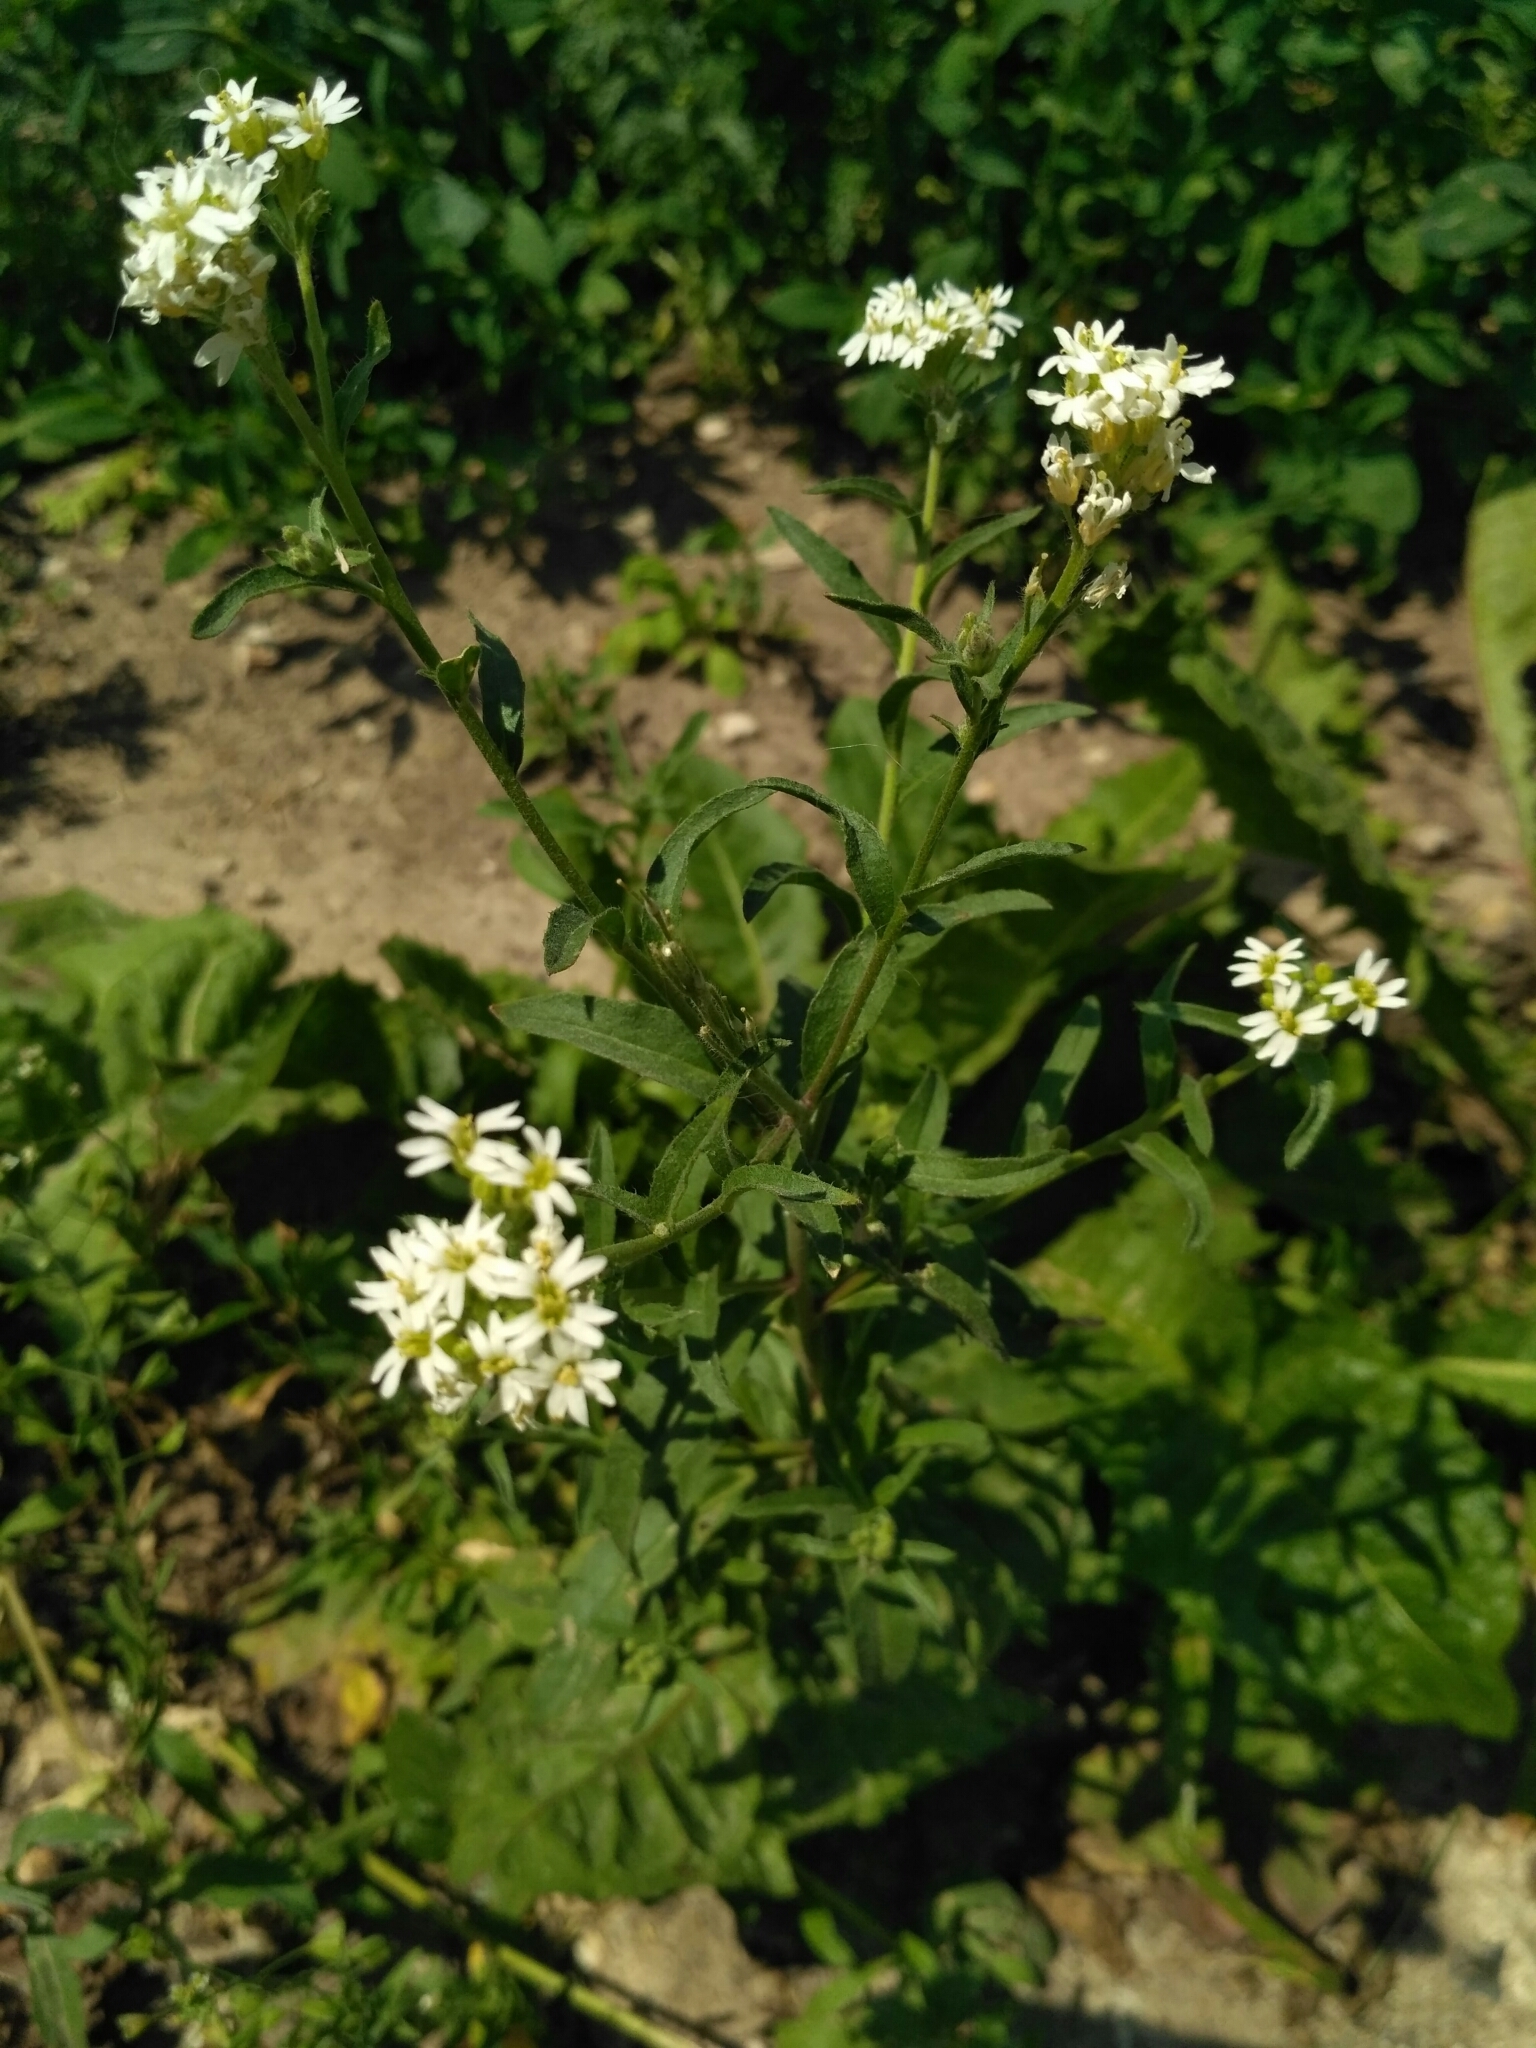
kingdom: Plantae
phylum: Tracheophyta
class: Magnoliopsida
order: Brassicales
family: Brassicaceae
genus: Berteroa
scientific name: Berteroa incana
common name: Hoary alison
